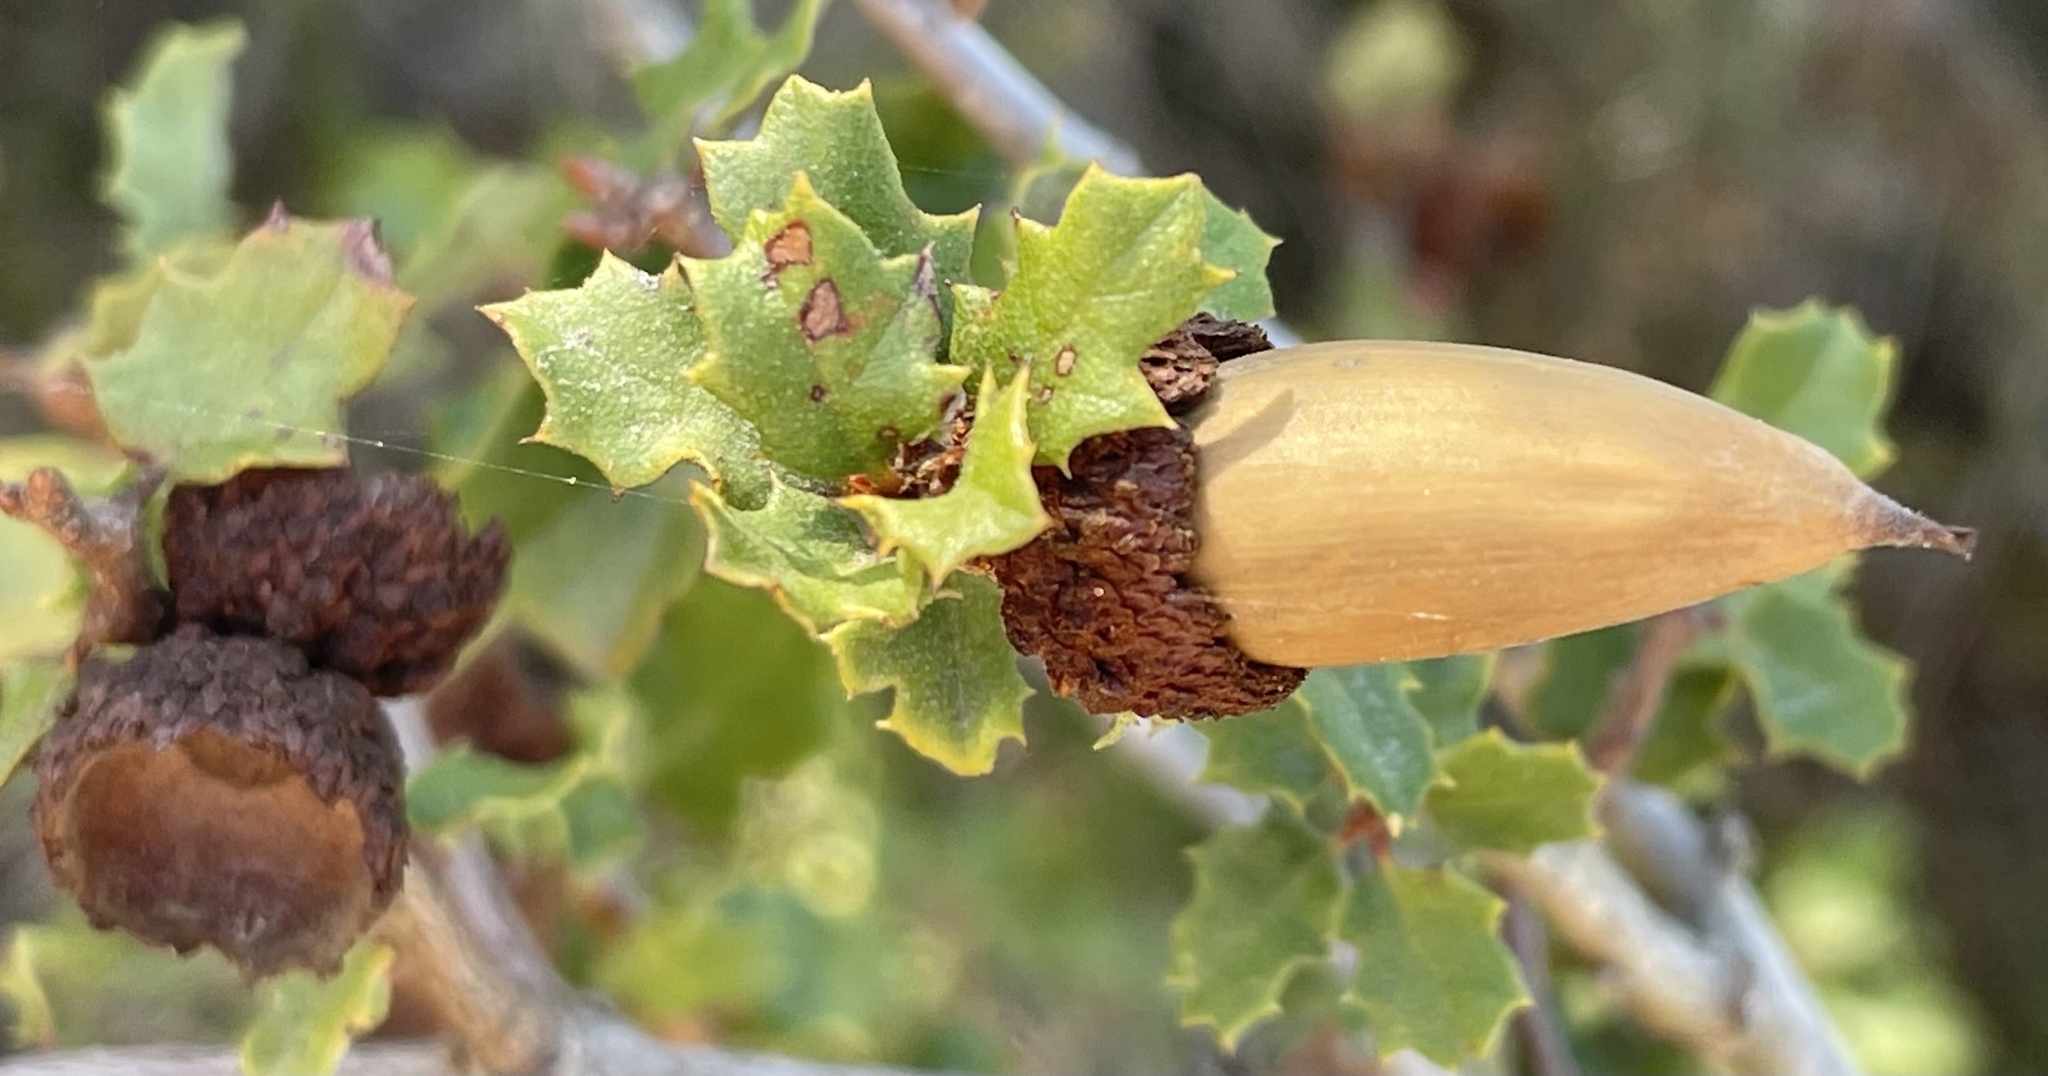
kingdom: Plantae
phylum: Tracheophyta
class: Magnoliopsida
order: Fagales
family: Fagaceae
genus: Quercus
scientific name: Quercus dumosa
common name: Coastal sage scrub oak
